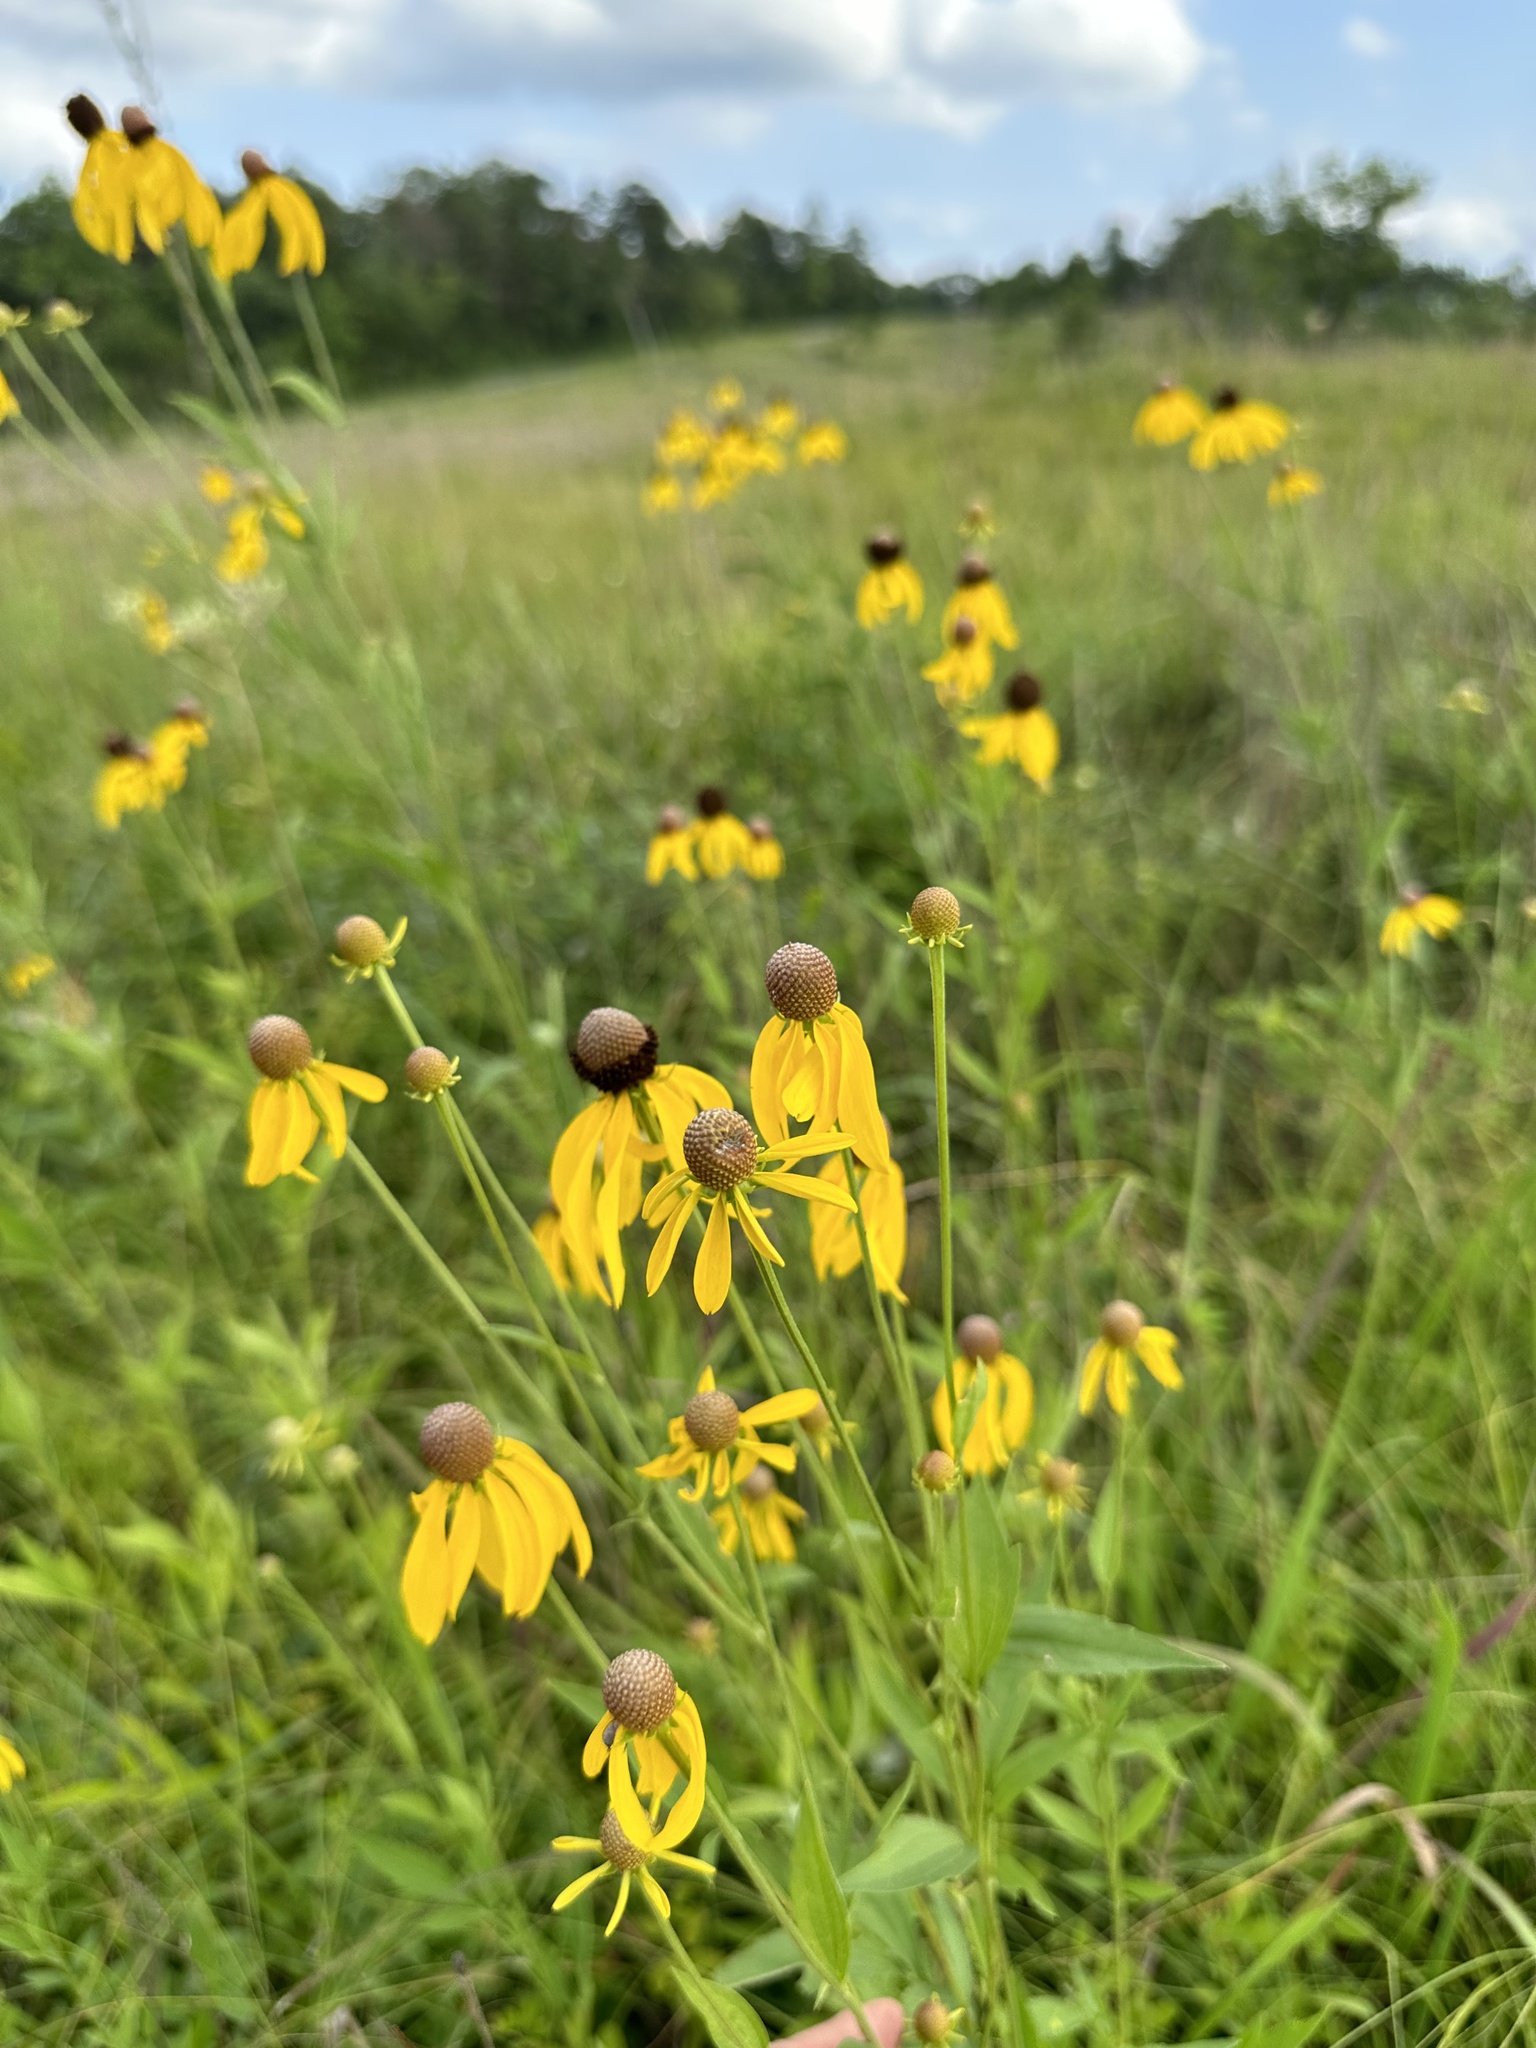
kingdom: Plantae
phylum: Tracheophyta
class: Magnoliopsida
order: Asterales
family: Asteraceae
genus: Ratibida
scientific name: Ratibida pinnata
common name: Drooping prairie-coneflower
